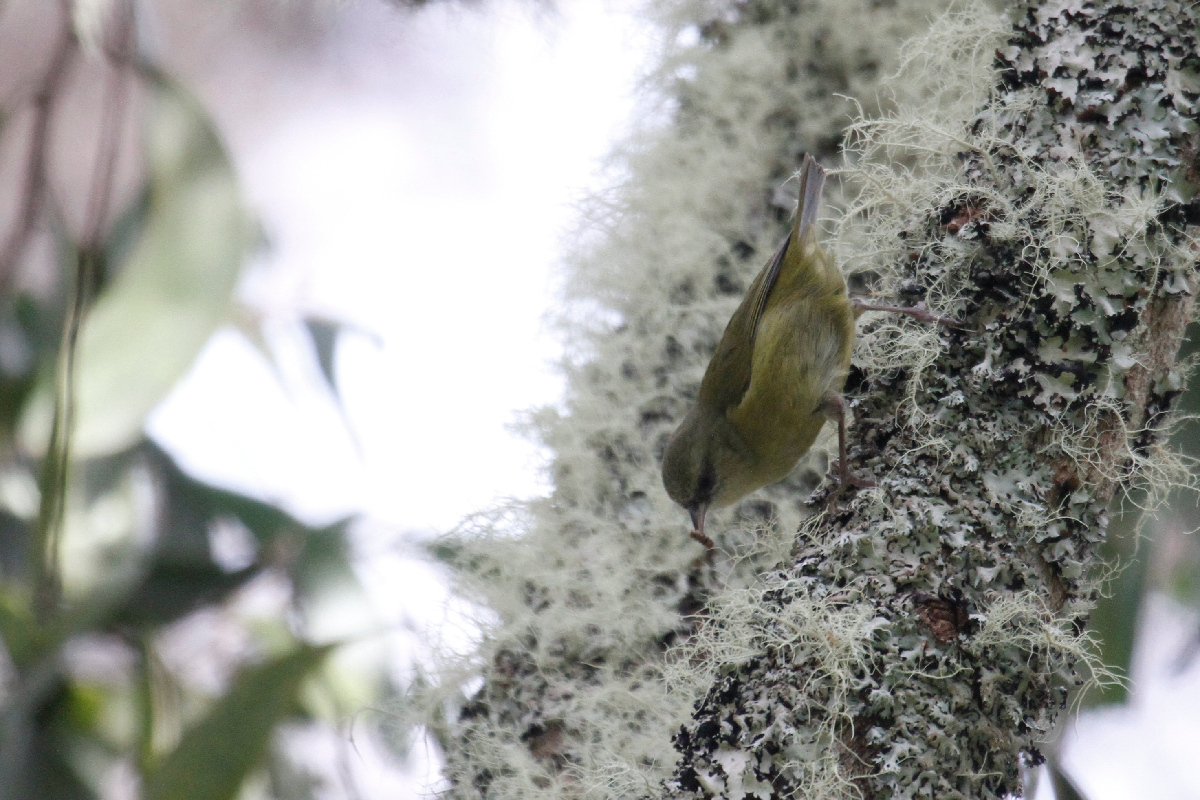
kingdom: Animalia
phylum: Chordata
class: Aves
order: Passeriformes
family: Fringillidae
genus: Loxops
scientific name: Loxops mana
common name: Hawaii creeper
